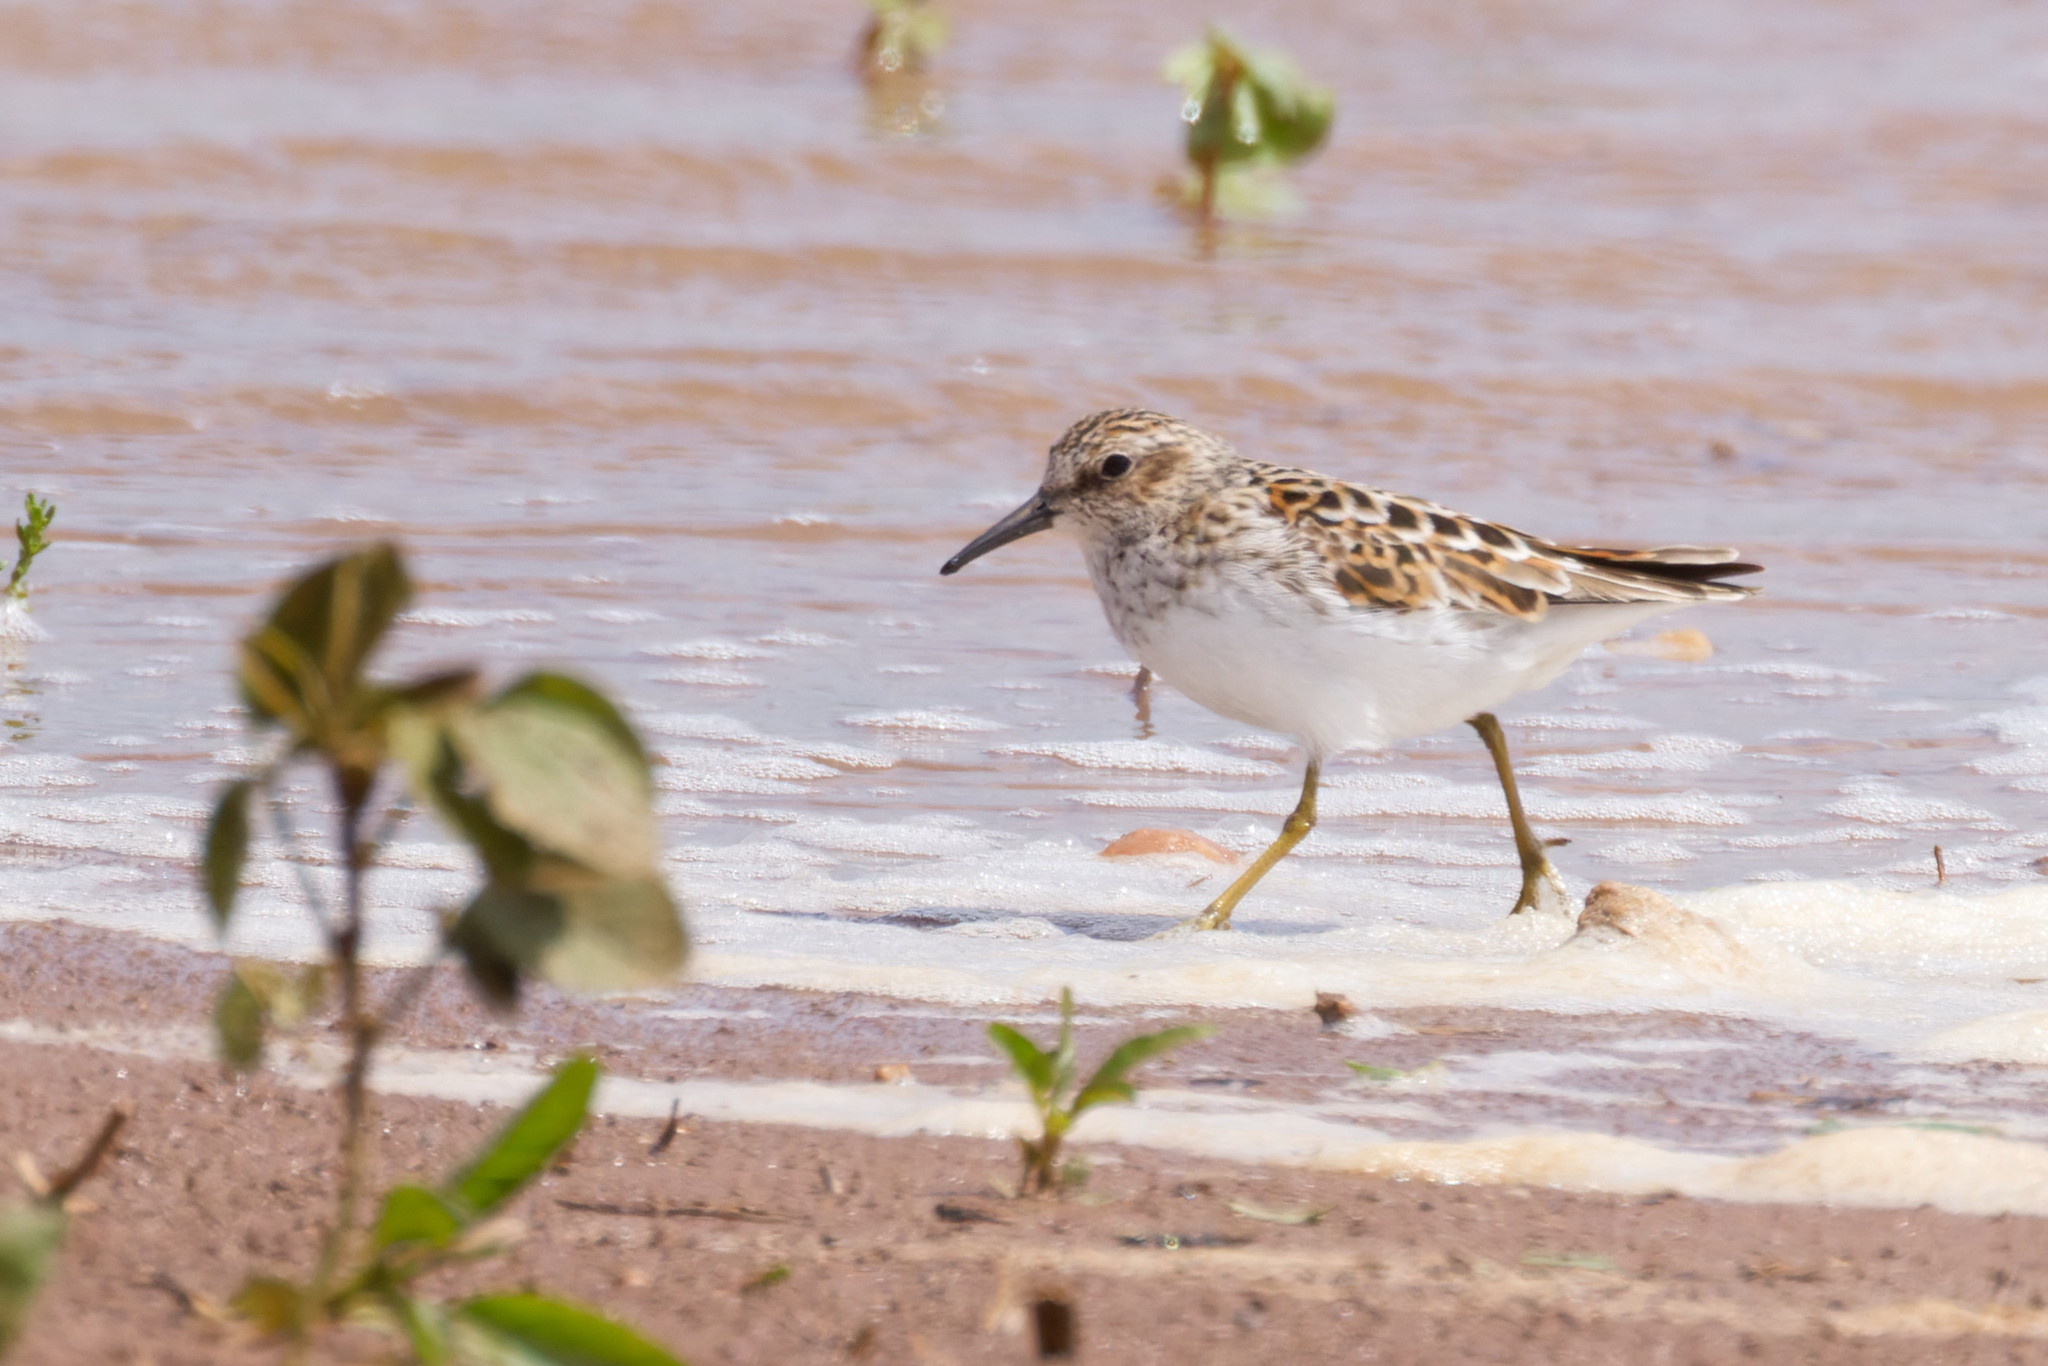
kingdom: Animalia
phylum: Chordata
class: Aves
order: Charadriiformes
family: Scolopacidae
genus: Calidris
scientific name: Calidris minutilla
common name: Least sandpiper
